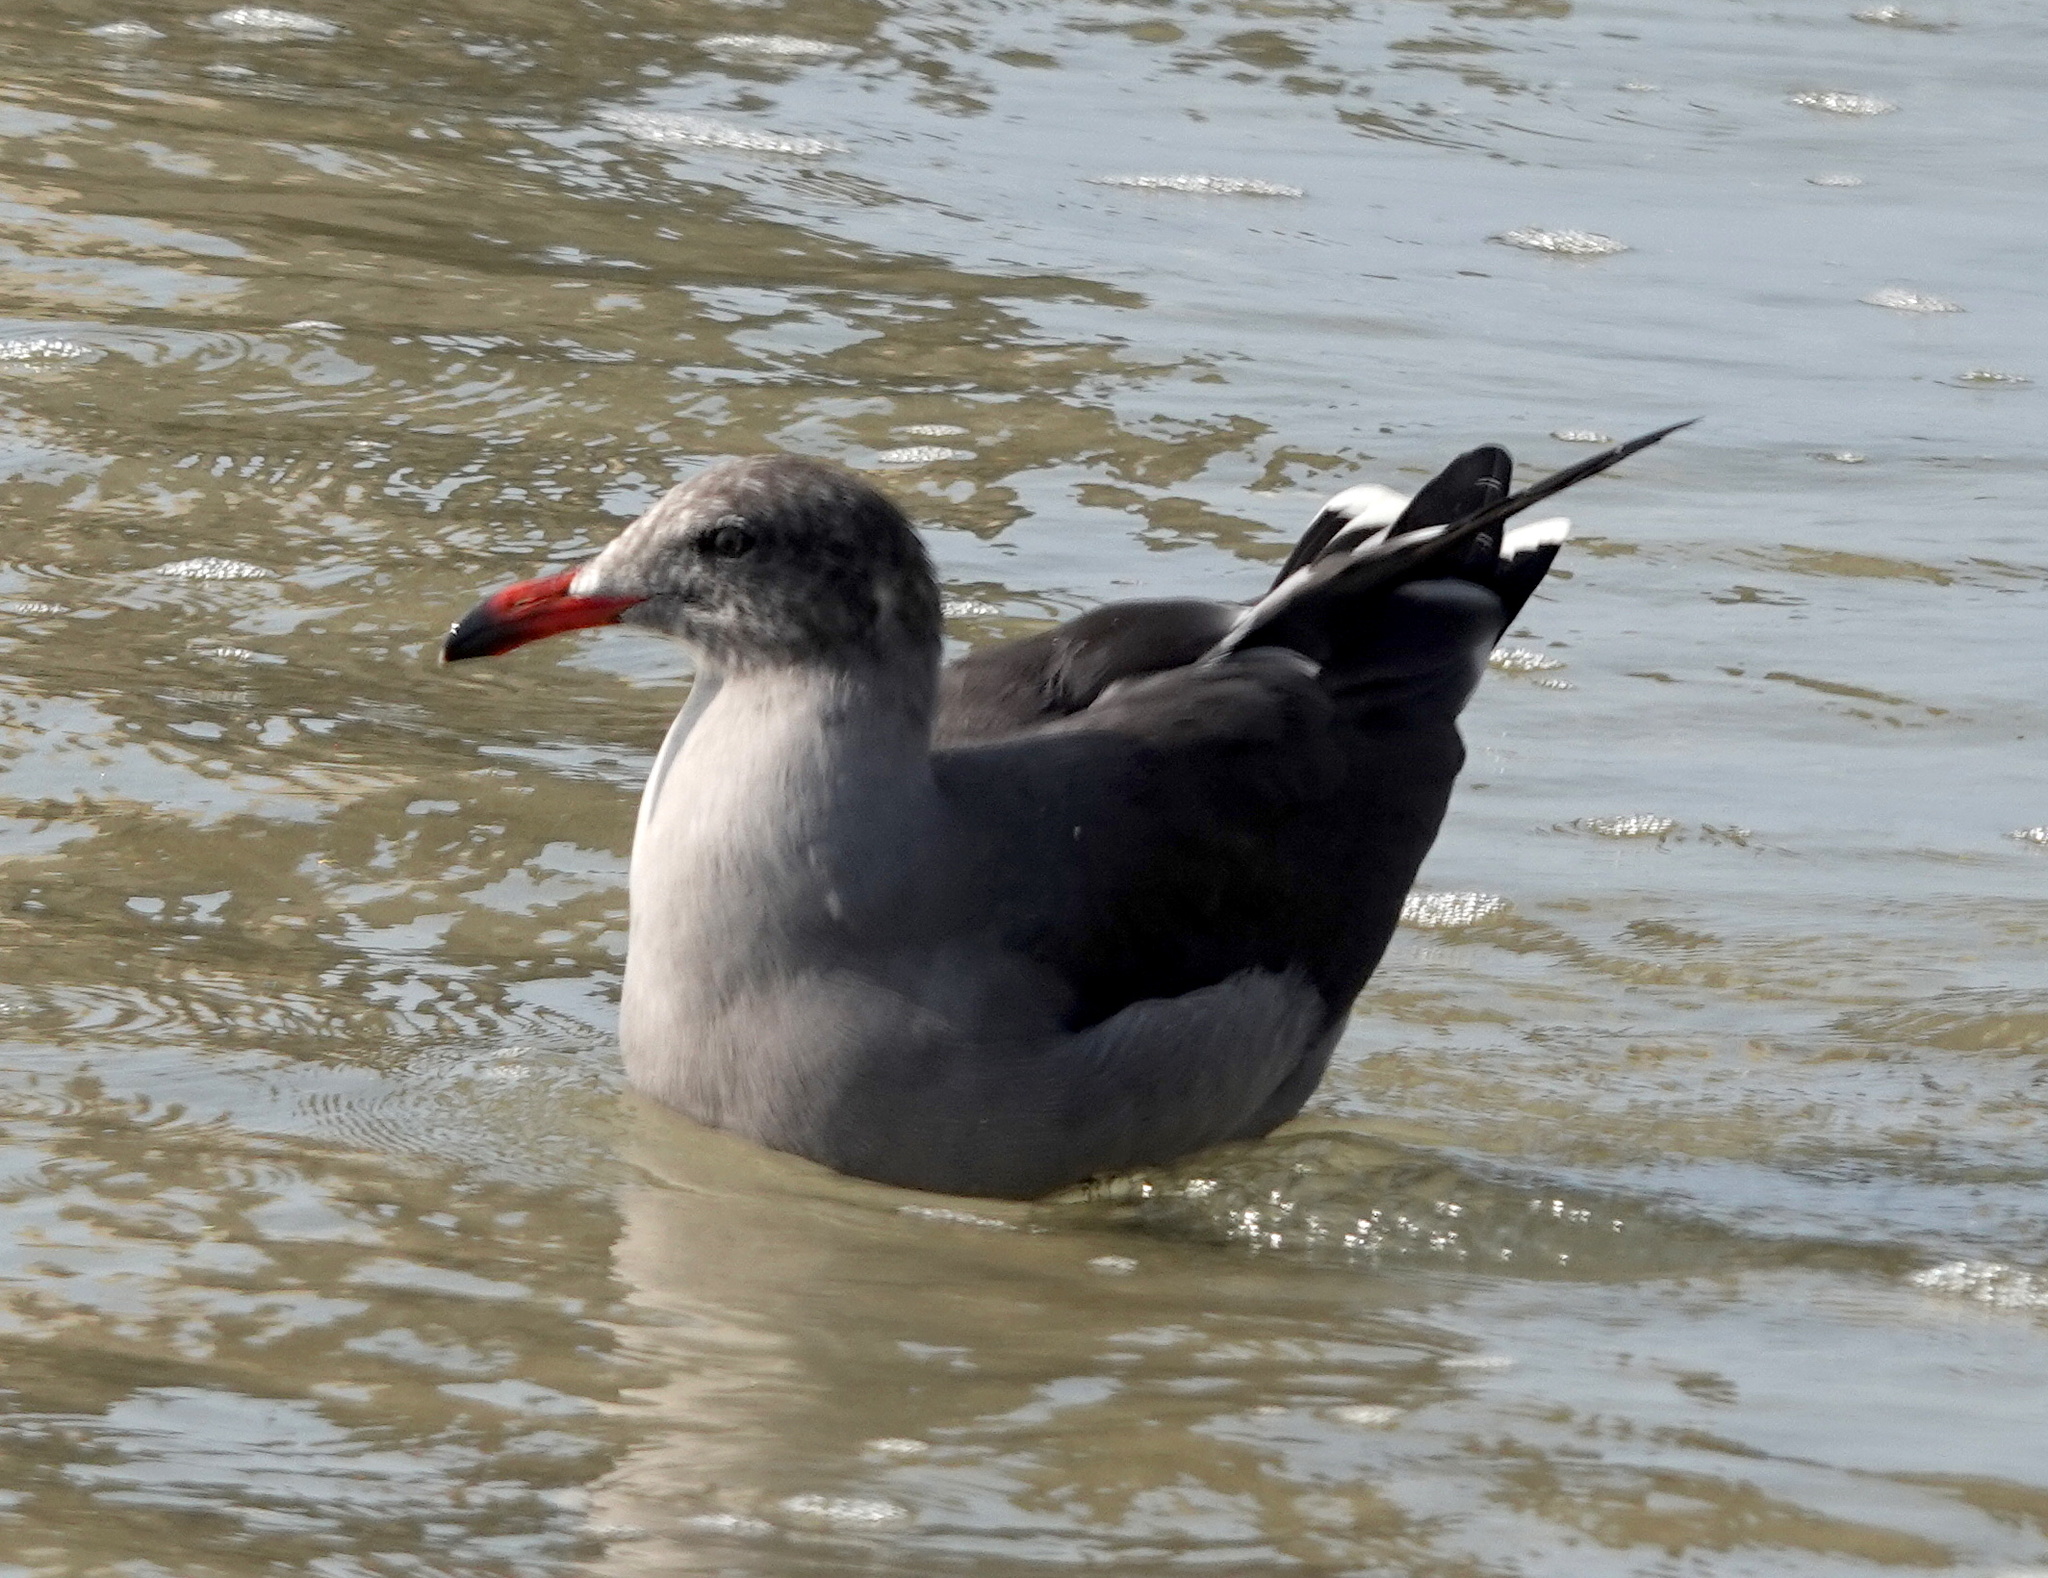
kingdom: Animalia
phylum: Chordata
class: Aves
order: Charadriiformes
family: Laridae
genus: Larus
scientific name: Larus heermanni
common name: Heermann's gull
